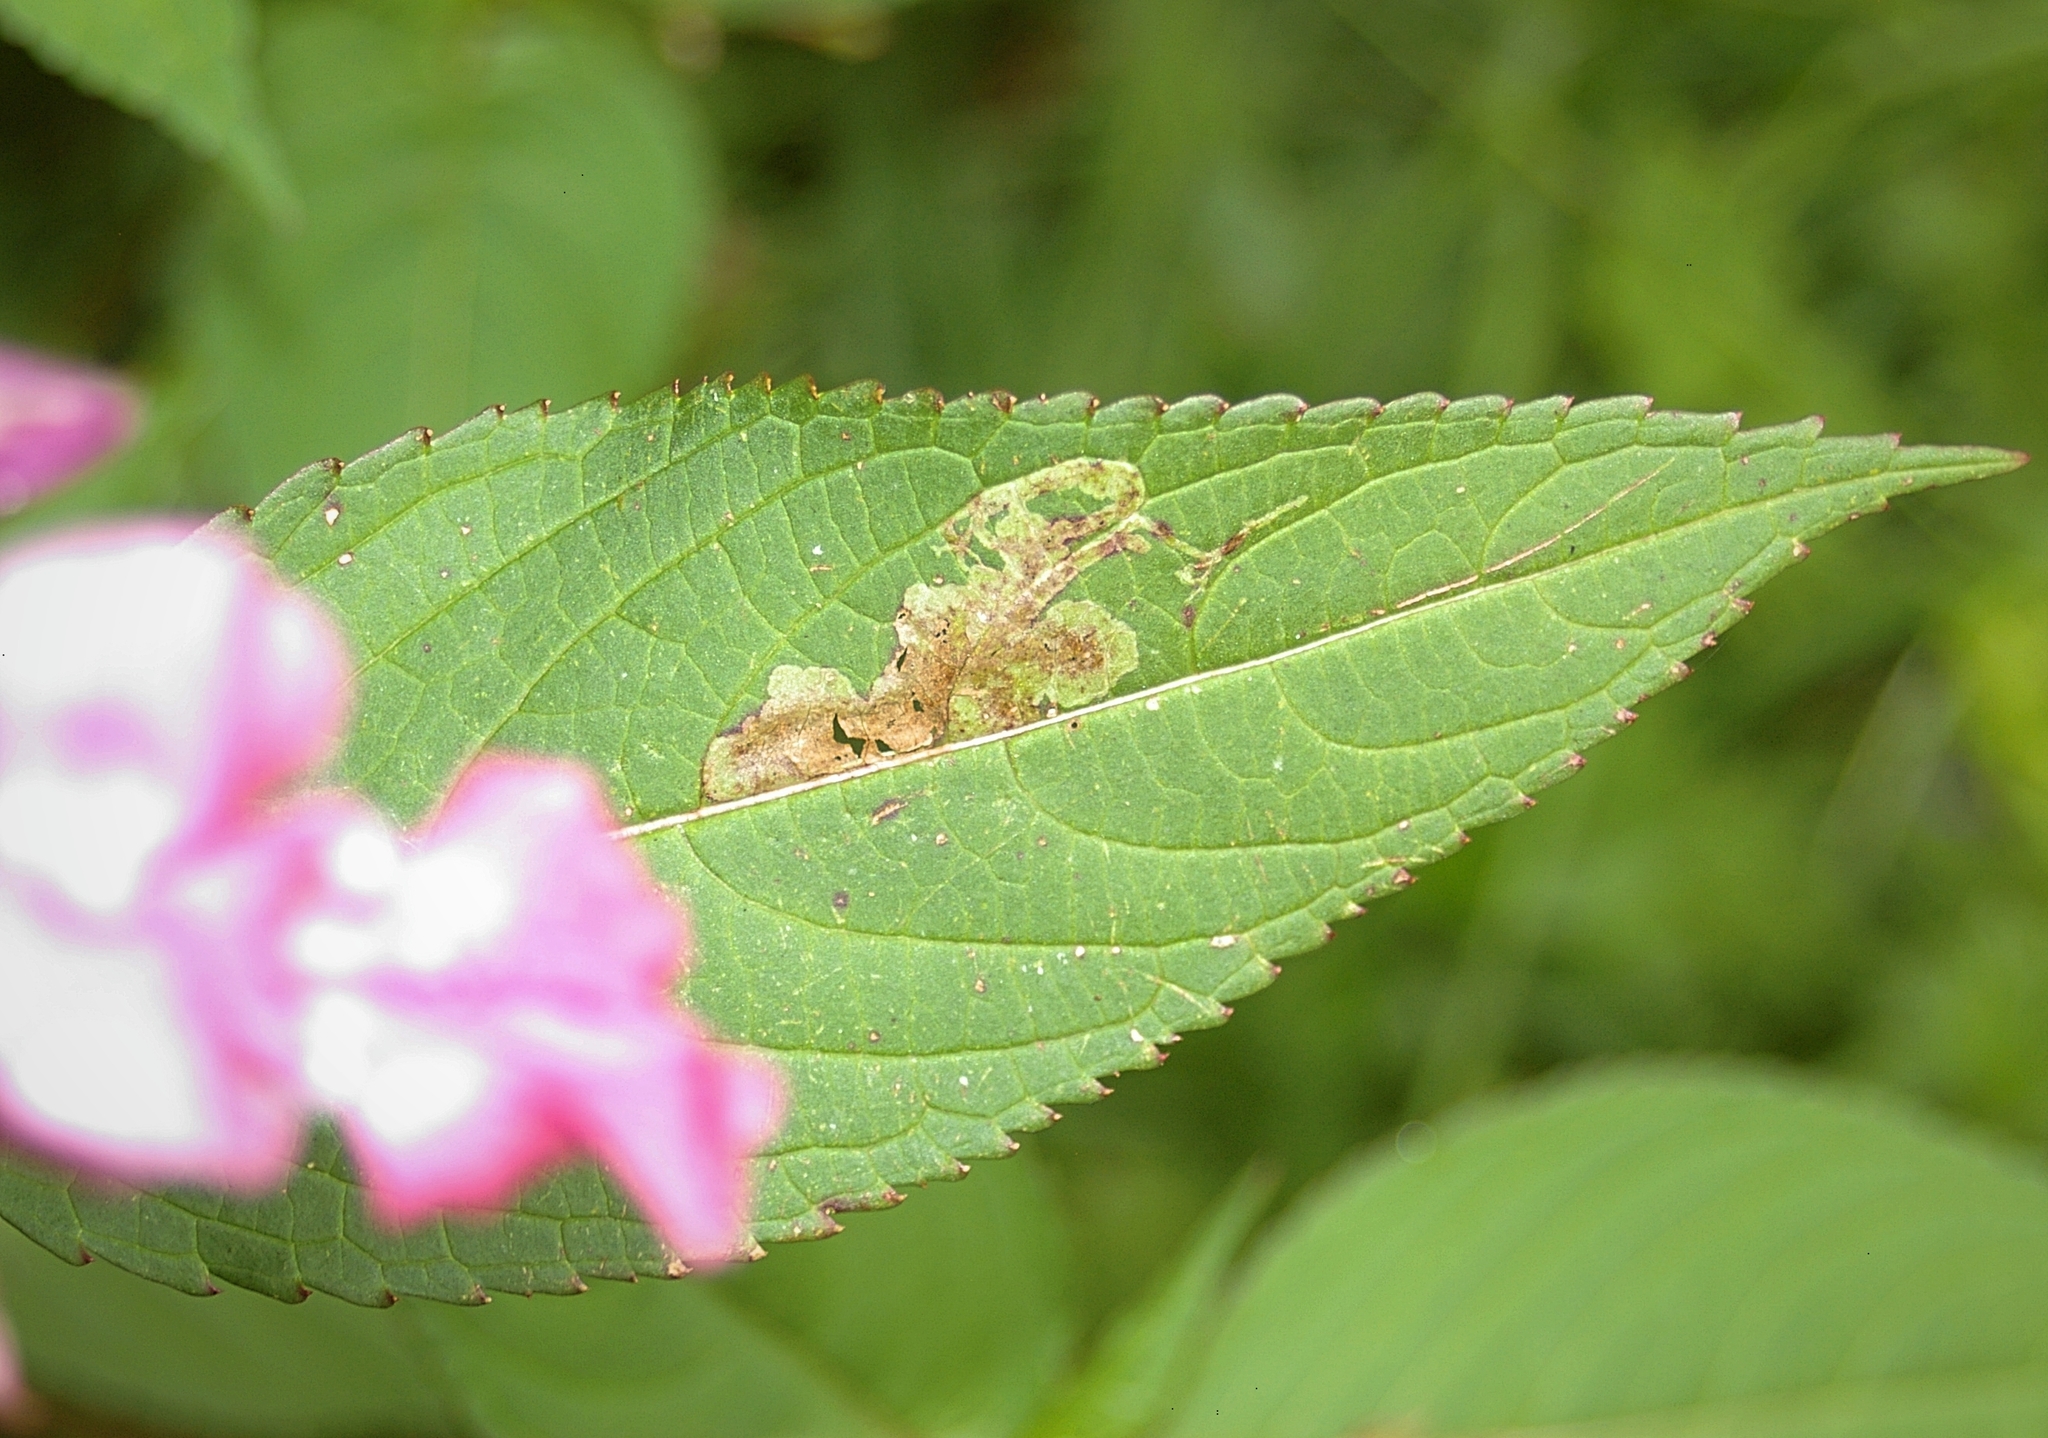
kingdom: Animalia
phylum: Arthropoda
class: Insecta
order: Diptera
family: Agromyzidae
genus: Phytoliriomyza
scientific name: Phytoliriomyza melampyga
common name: Jewelweed leaf-miner fly
